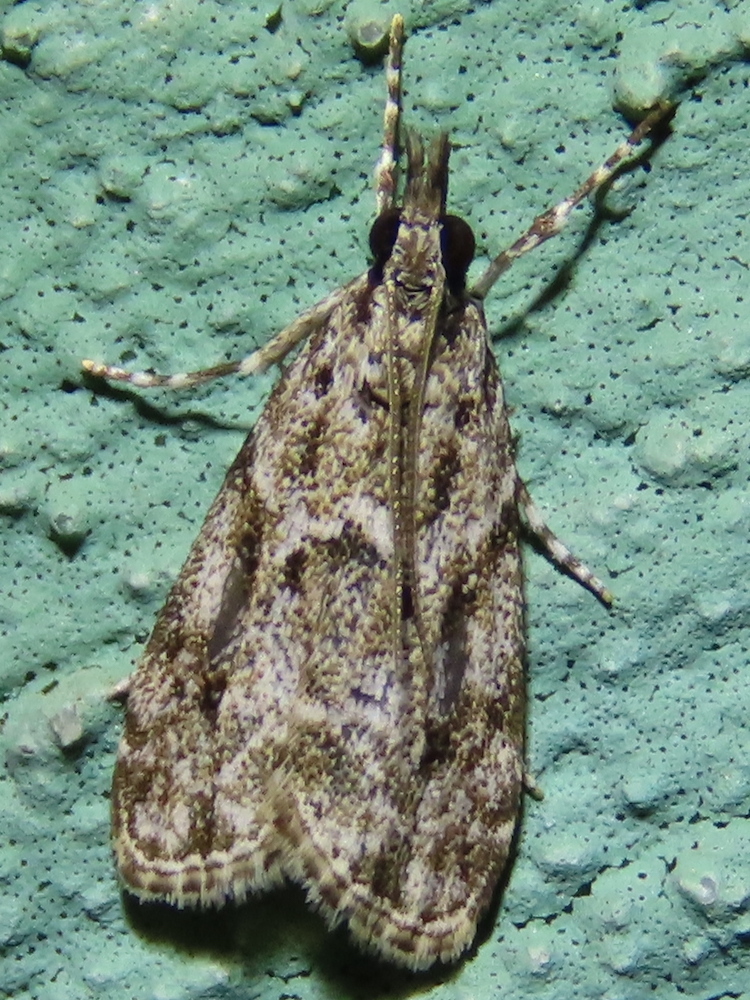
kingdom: Animalia
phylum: Arthropoda
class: Insecta
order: Lepidoptera
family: Crambidae
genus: Eudonia
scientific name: Eudonia heterosalis
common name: Mcdunnough's eudonia
